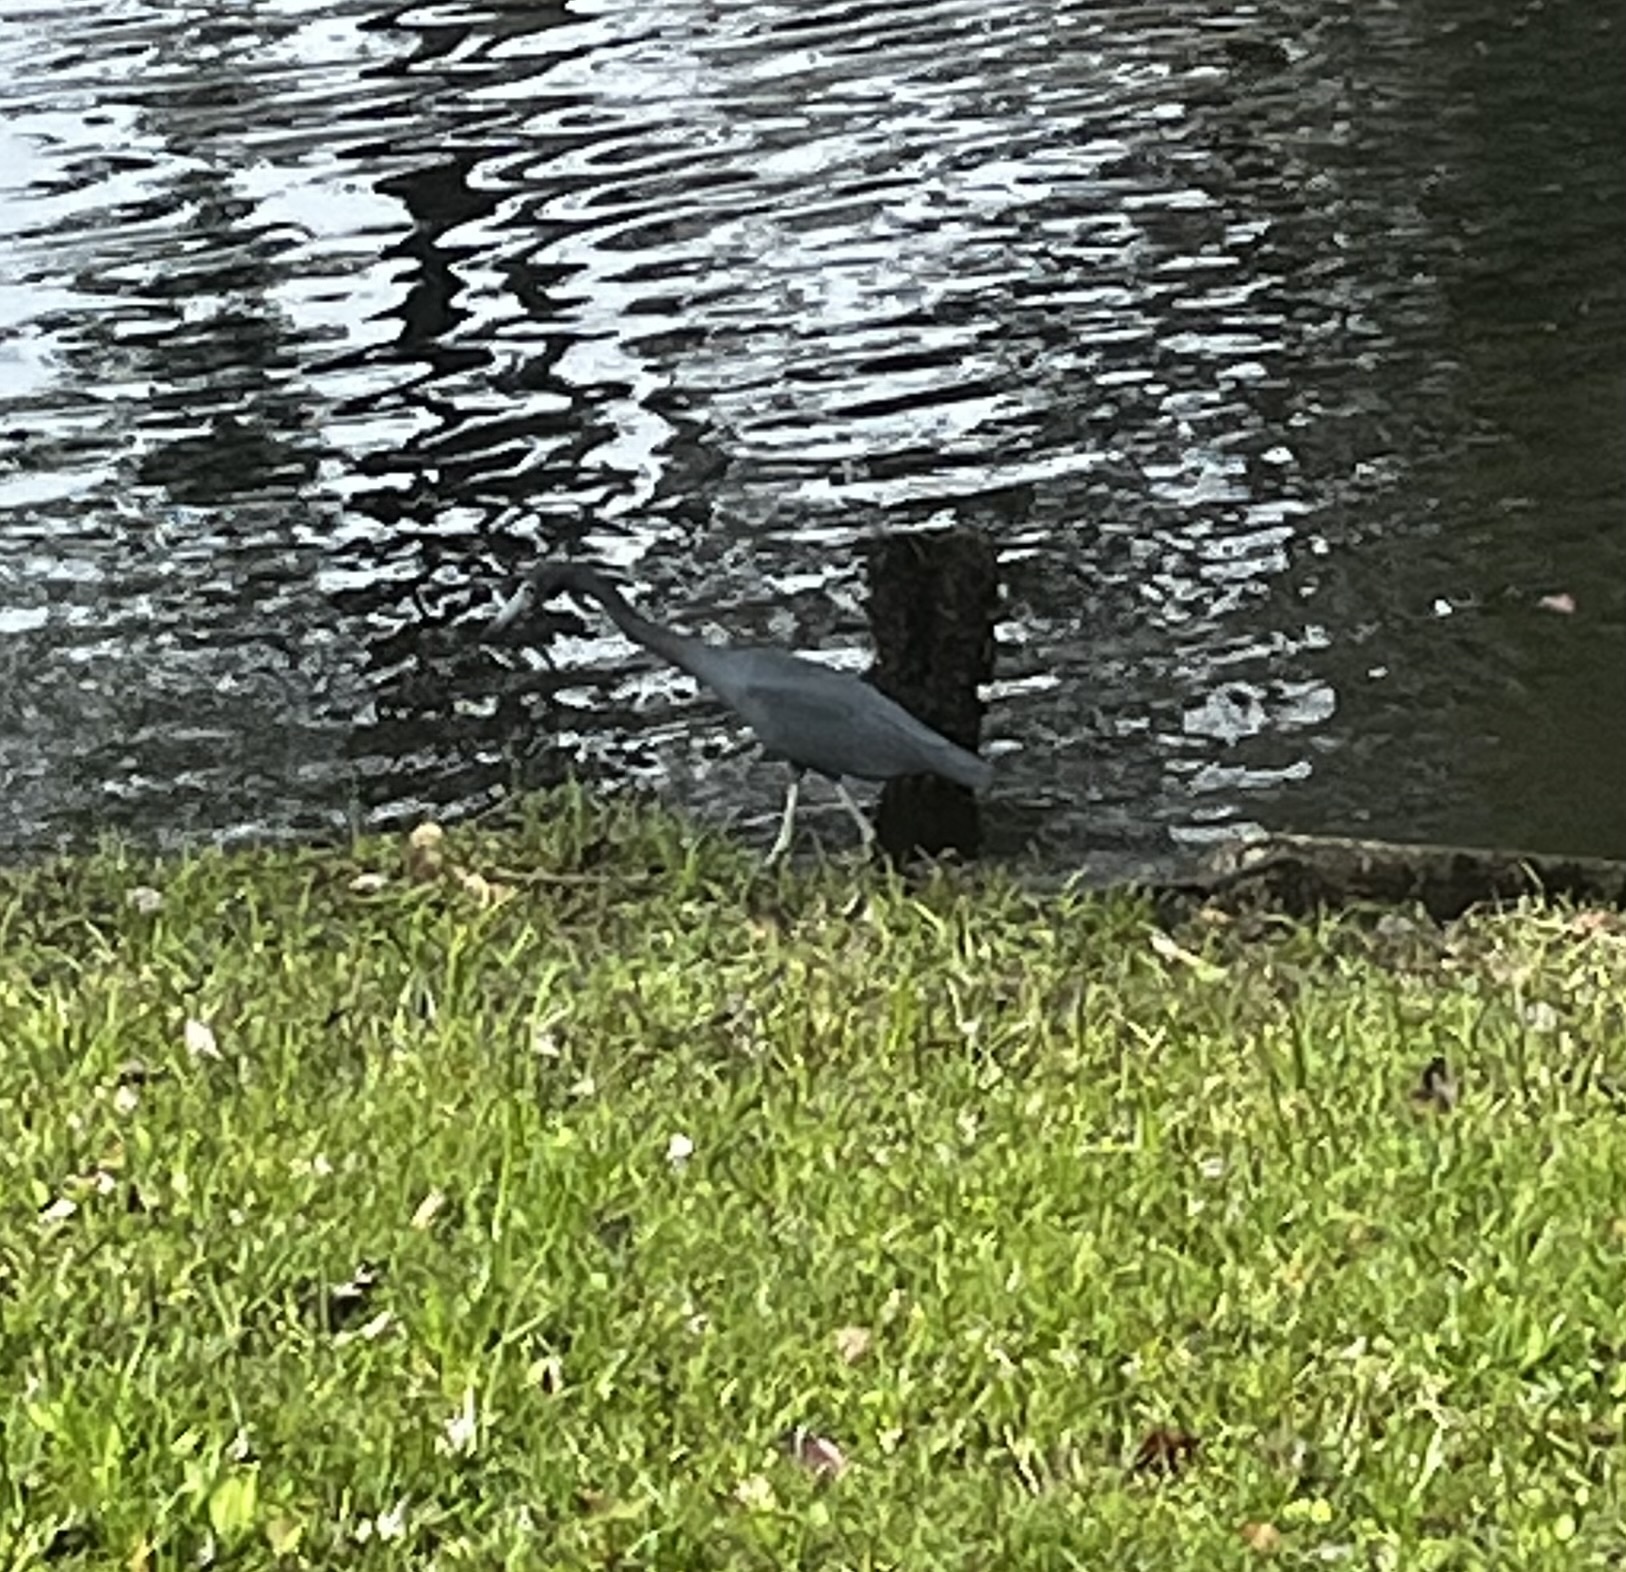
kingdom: Animalia
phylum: Chordata
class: Aves
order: Pelecaniformes
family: Ardeidae
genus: Egretta
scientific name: Egretta caerulea
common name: Little blue heron
